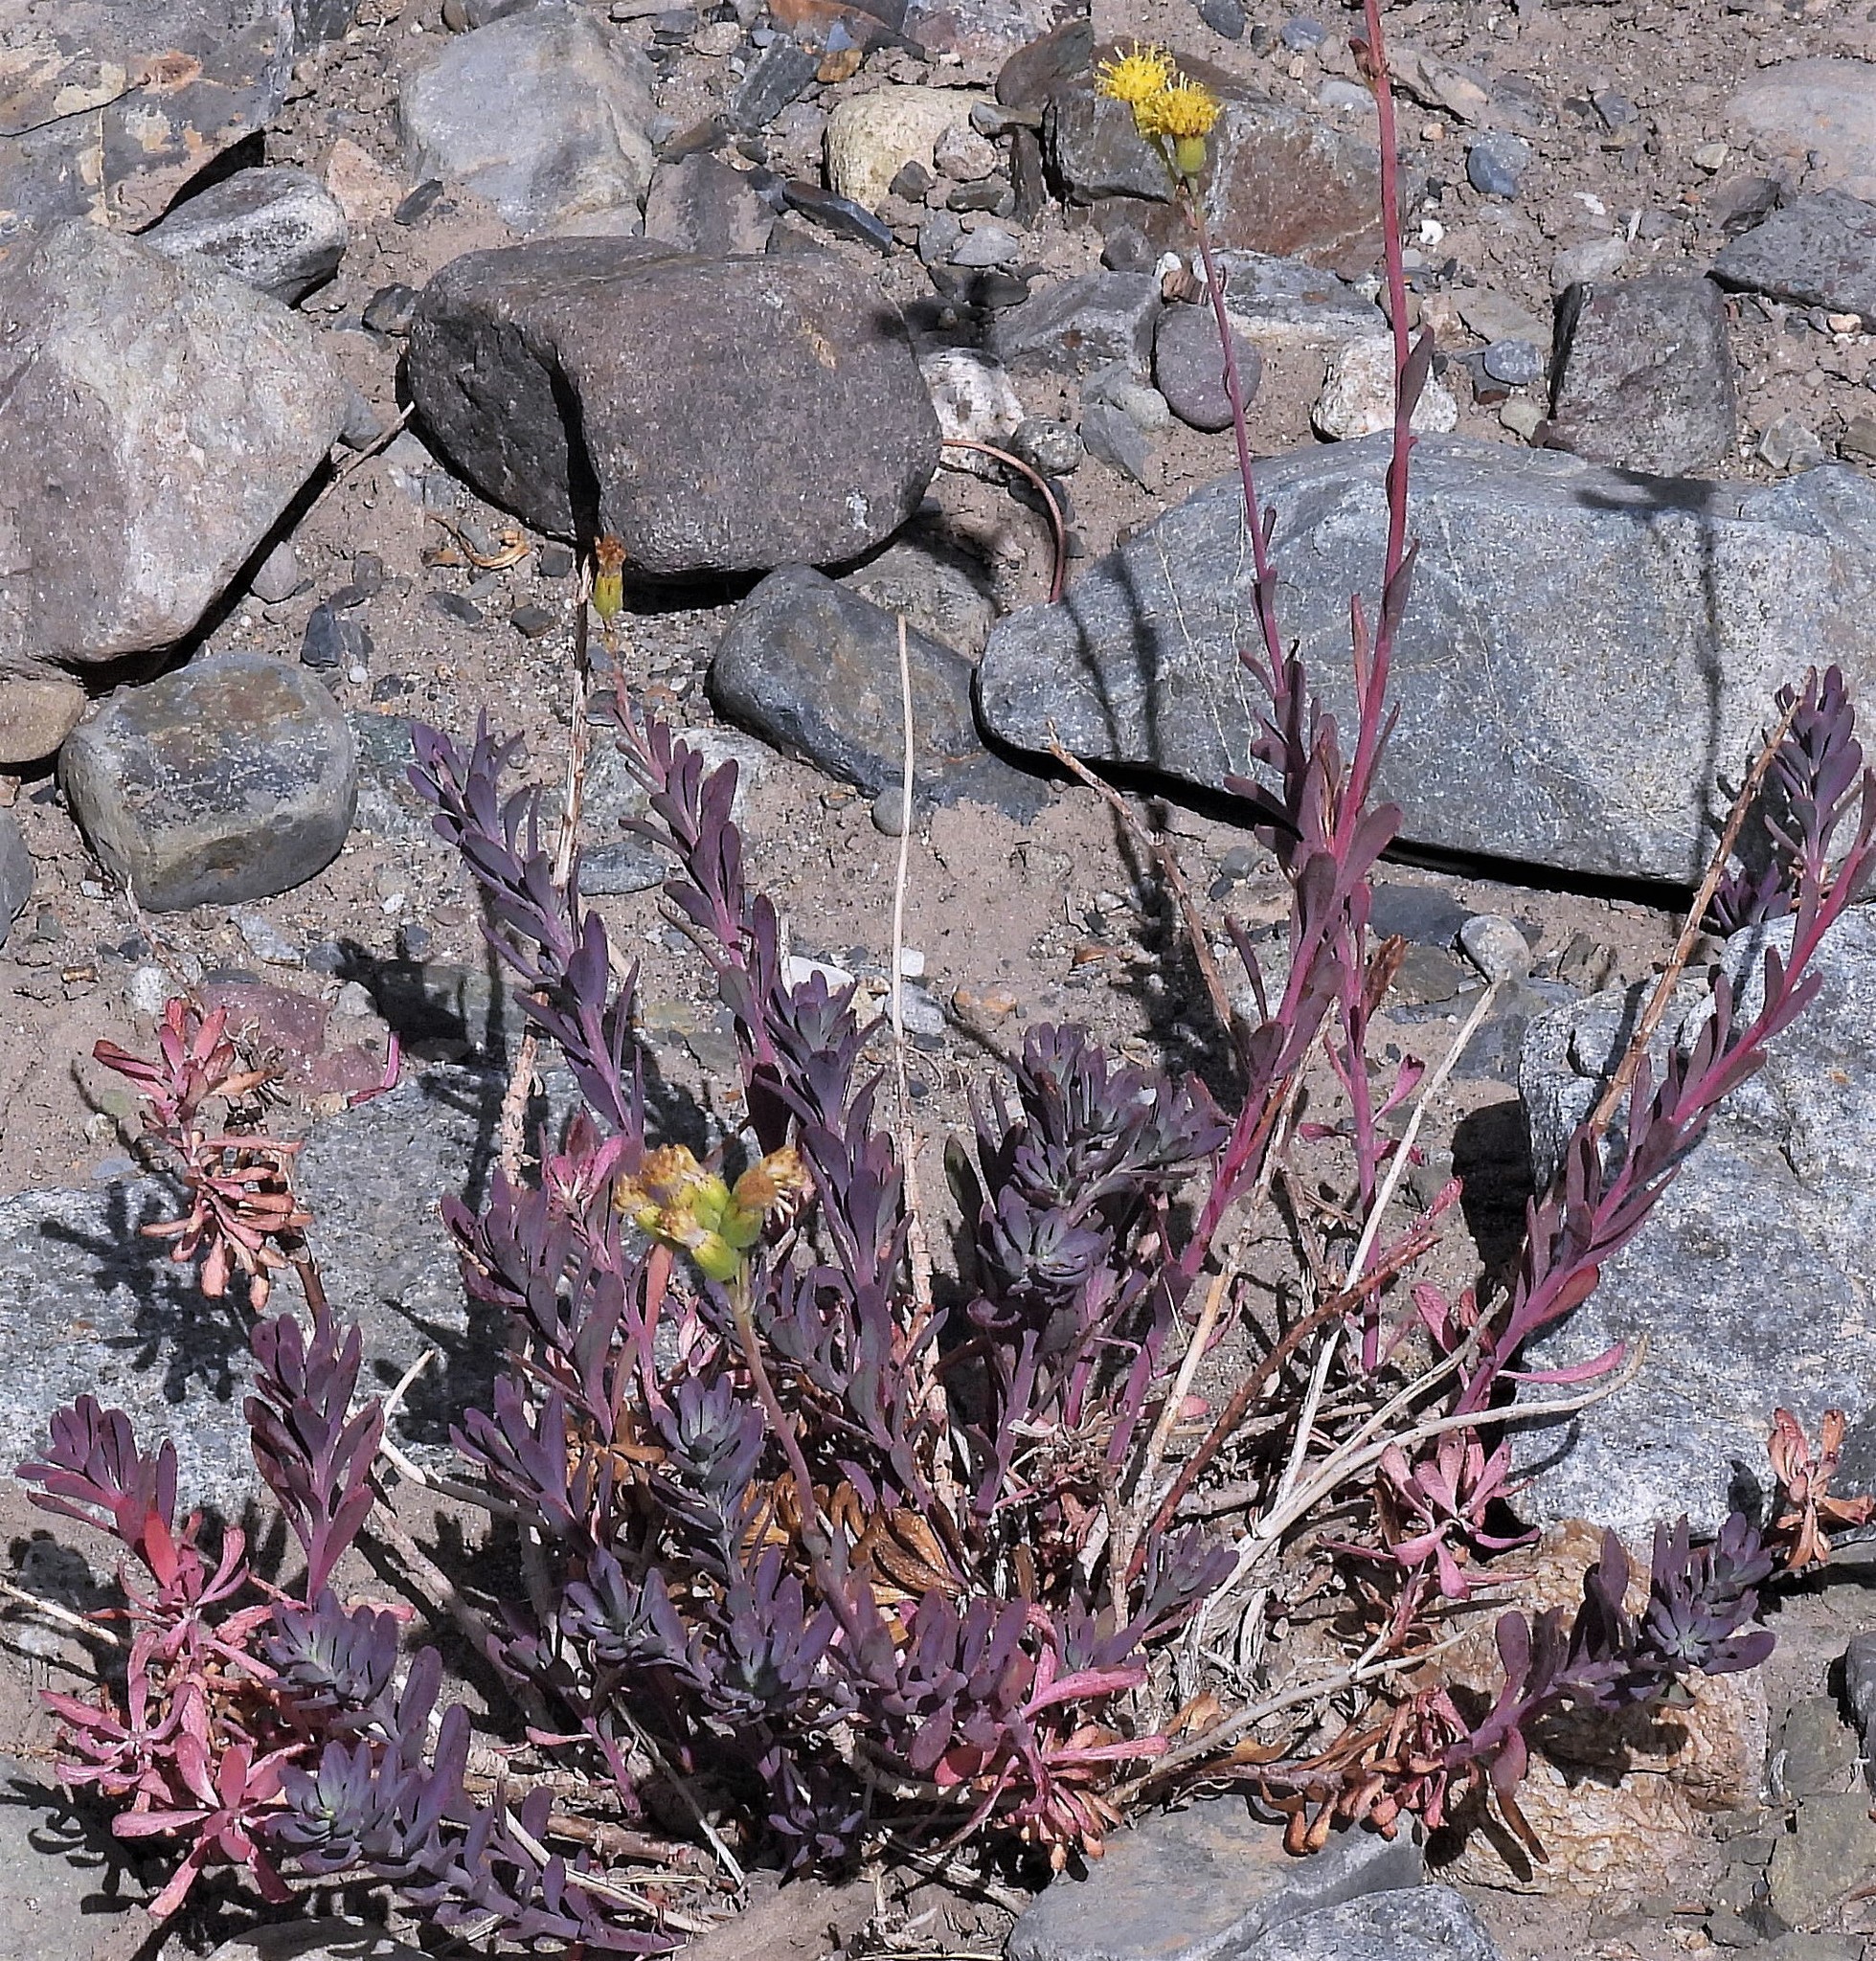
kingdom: Plantae
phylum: Tracheophyta
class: Magnoliopsida
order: Asterales
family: Asteraceae
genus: Senecio
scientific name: Senecio covasii
